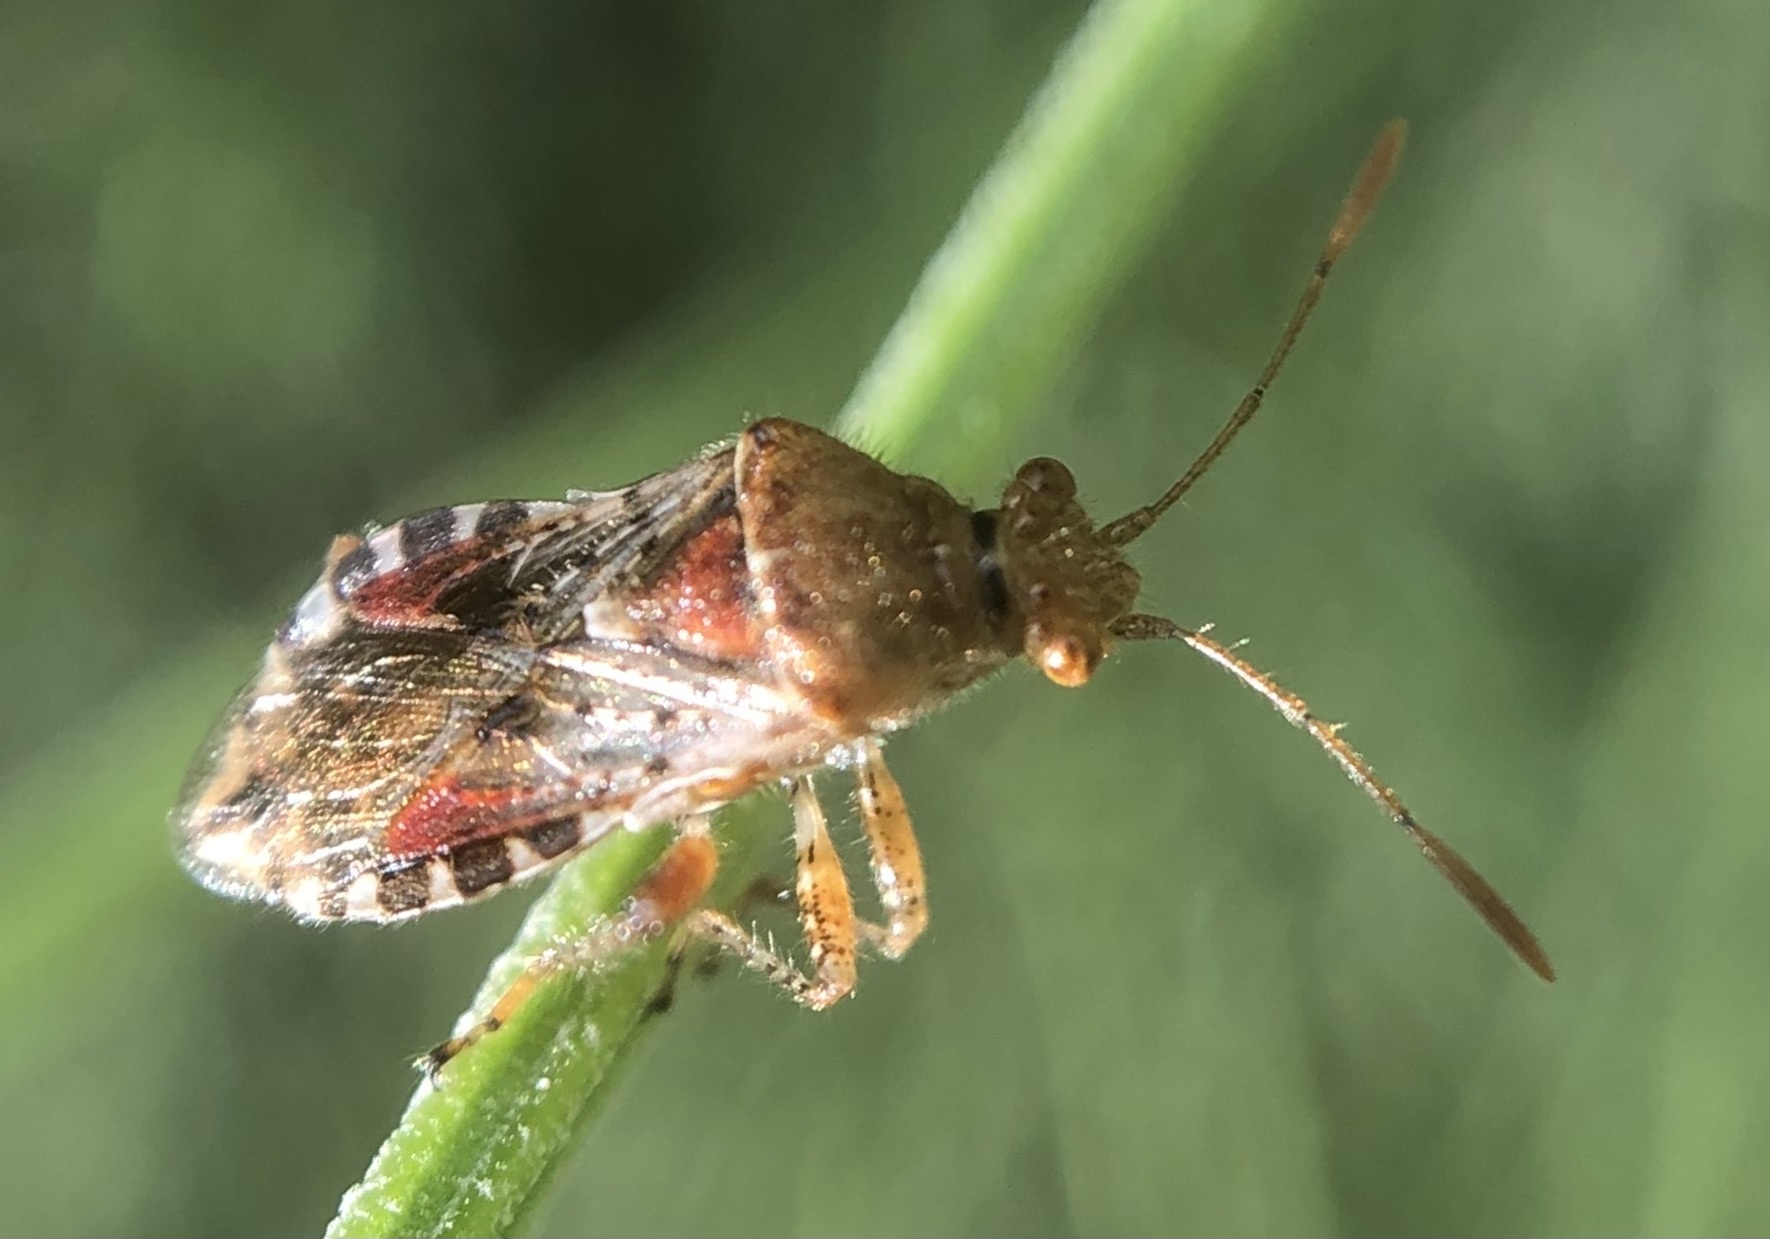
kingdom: Animalia
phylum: Arthropoda
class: Insecta
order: Hemiptera
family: Rhopalidae
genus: Rhopalus
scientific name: Rhopalus subrufus
